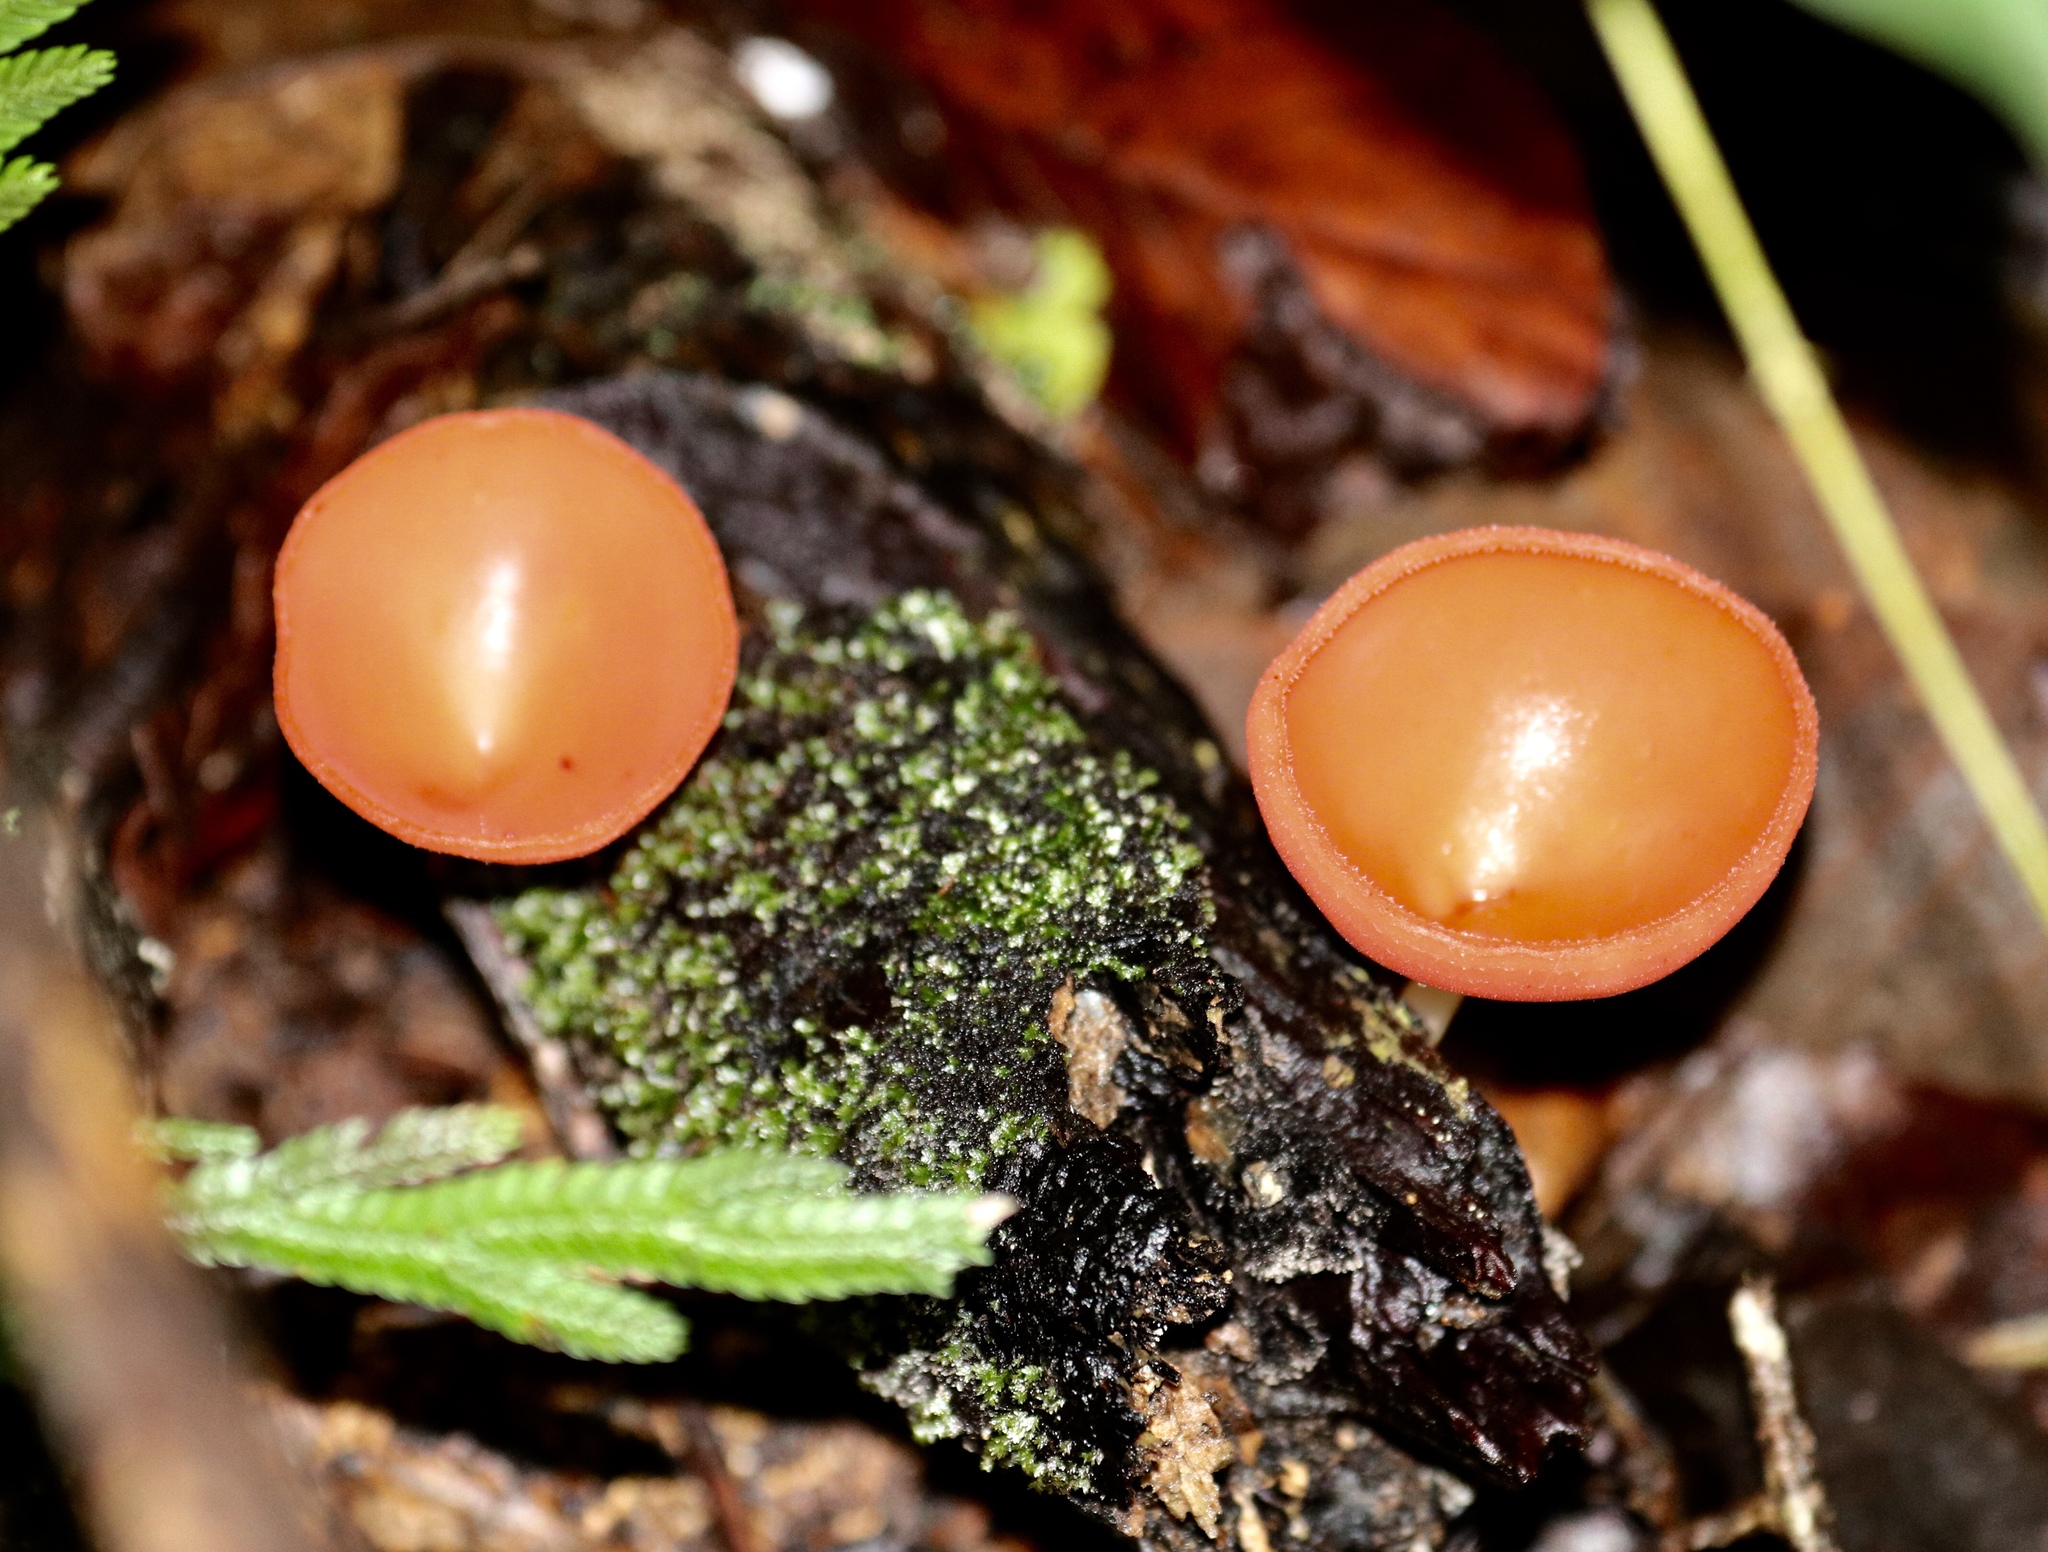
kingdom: Fungi
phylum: Ascomycota
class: Pezizomycetes
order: Pezizales
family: Sarcoscyphaceae
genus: Cookeina
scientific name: Cookeina speciosa
